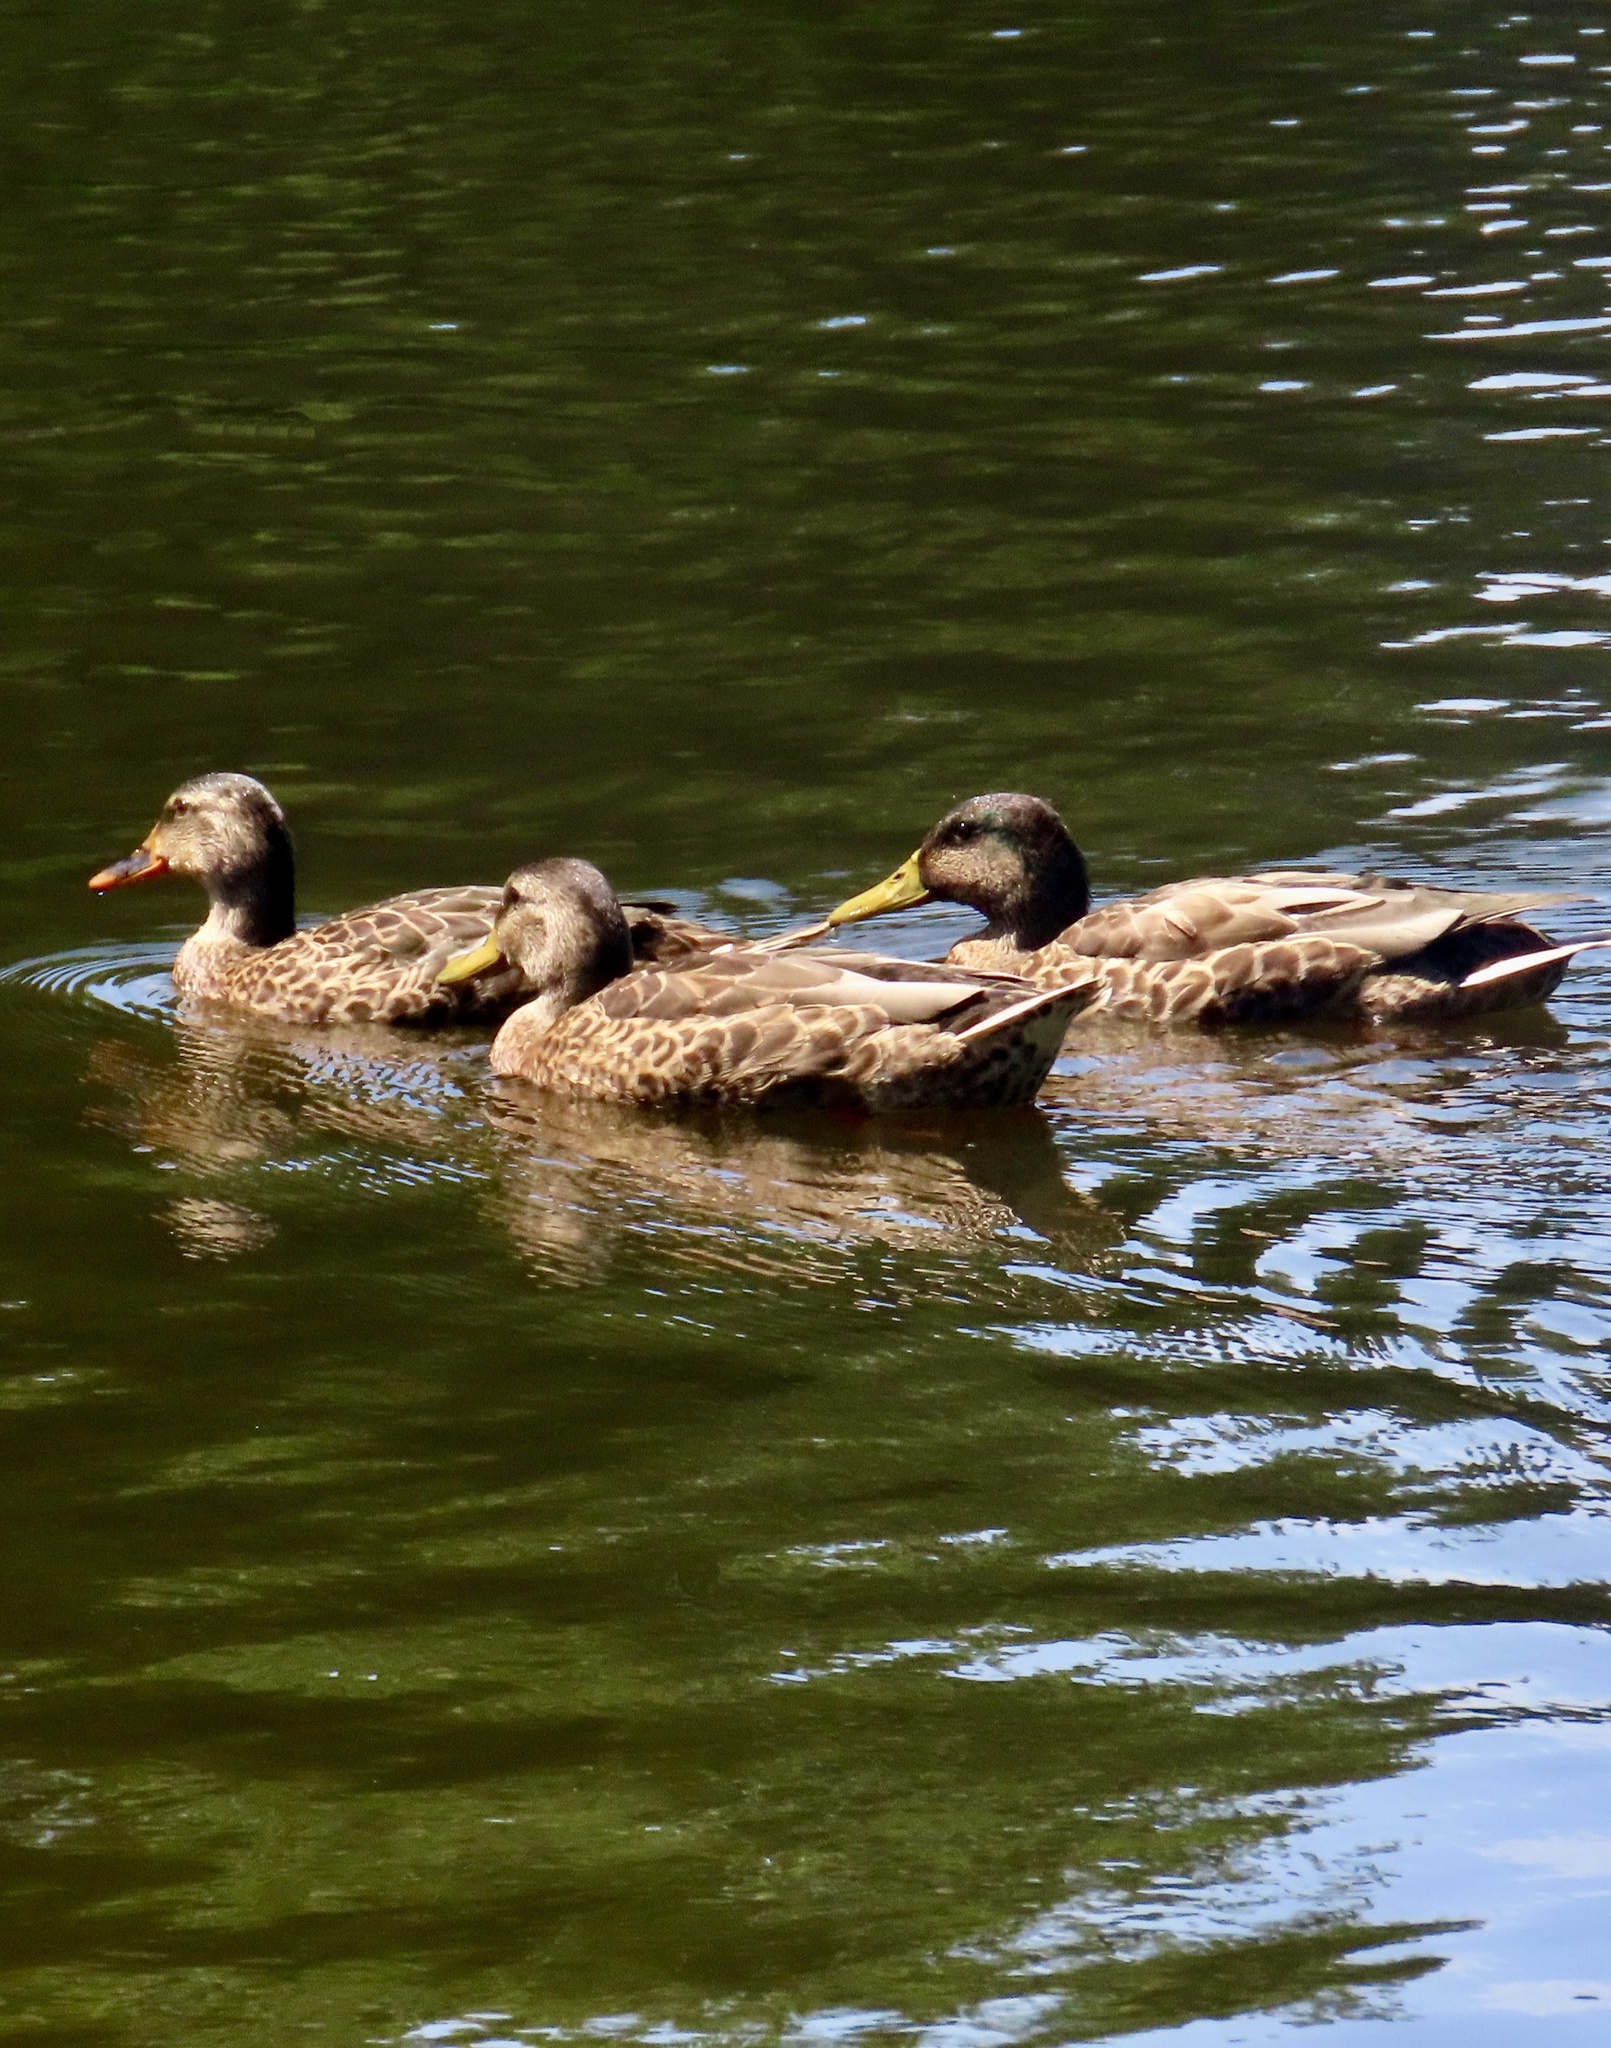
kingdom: Animalia
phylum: Chordata
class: Aves
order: Anseriformes
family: Anatidae
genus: Anas
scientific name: Anas platyrhynchos
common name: Mallard
